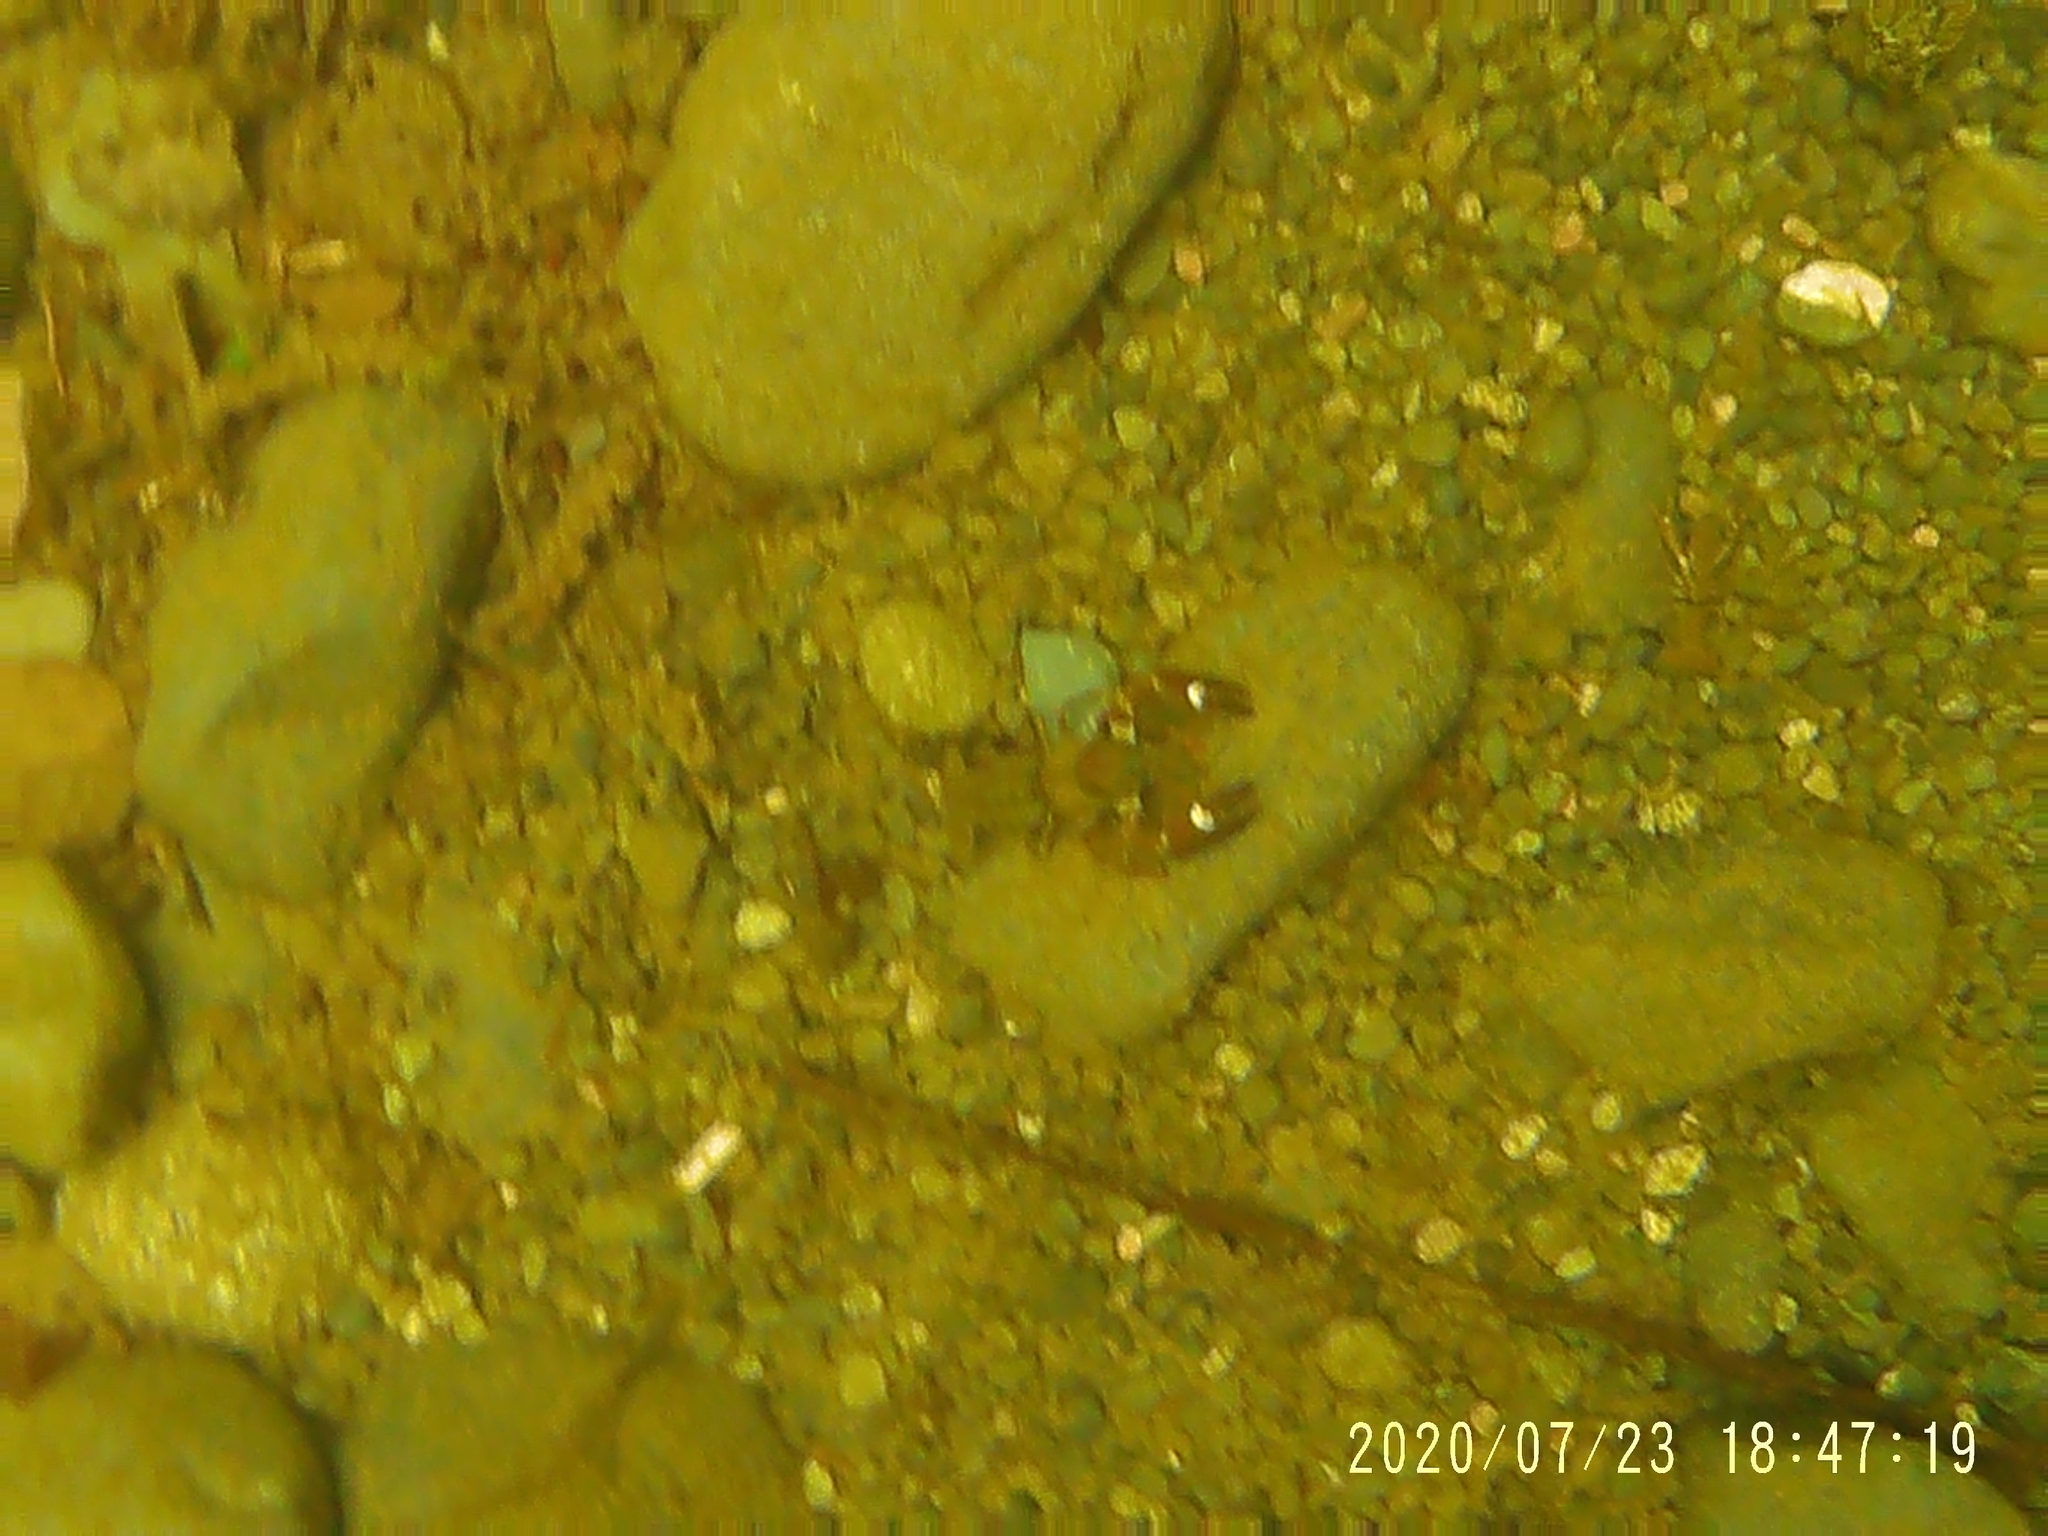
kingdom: Animalia
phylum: Arthropoda
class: Malacostraca
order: Decapoda
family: Astacidae
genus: Pacifastacus
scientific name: Pacifastacus leniusculus
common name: Signal crayfish
